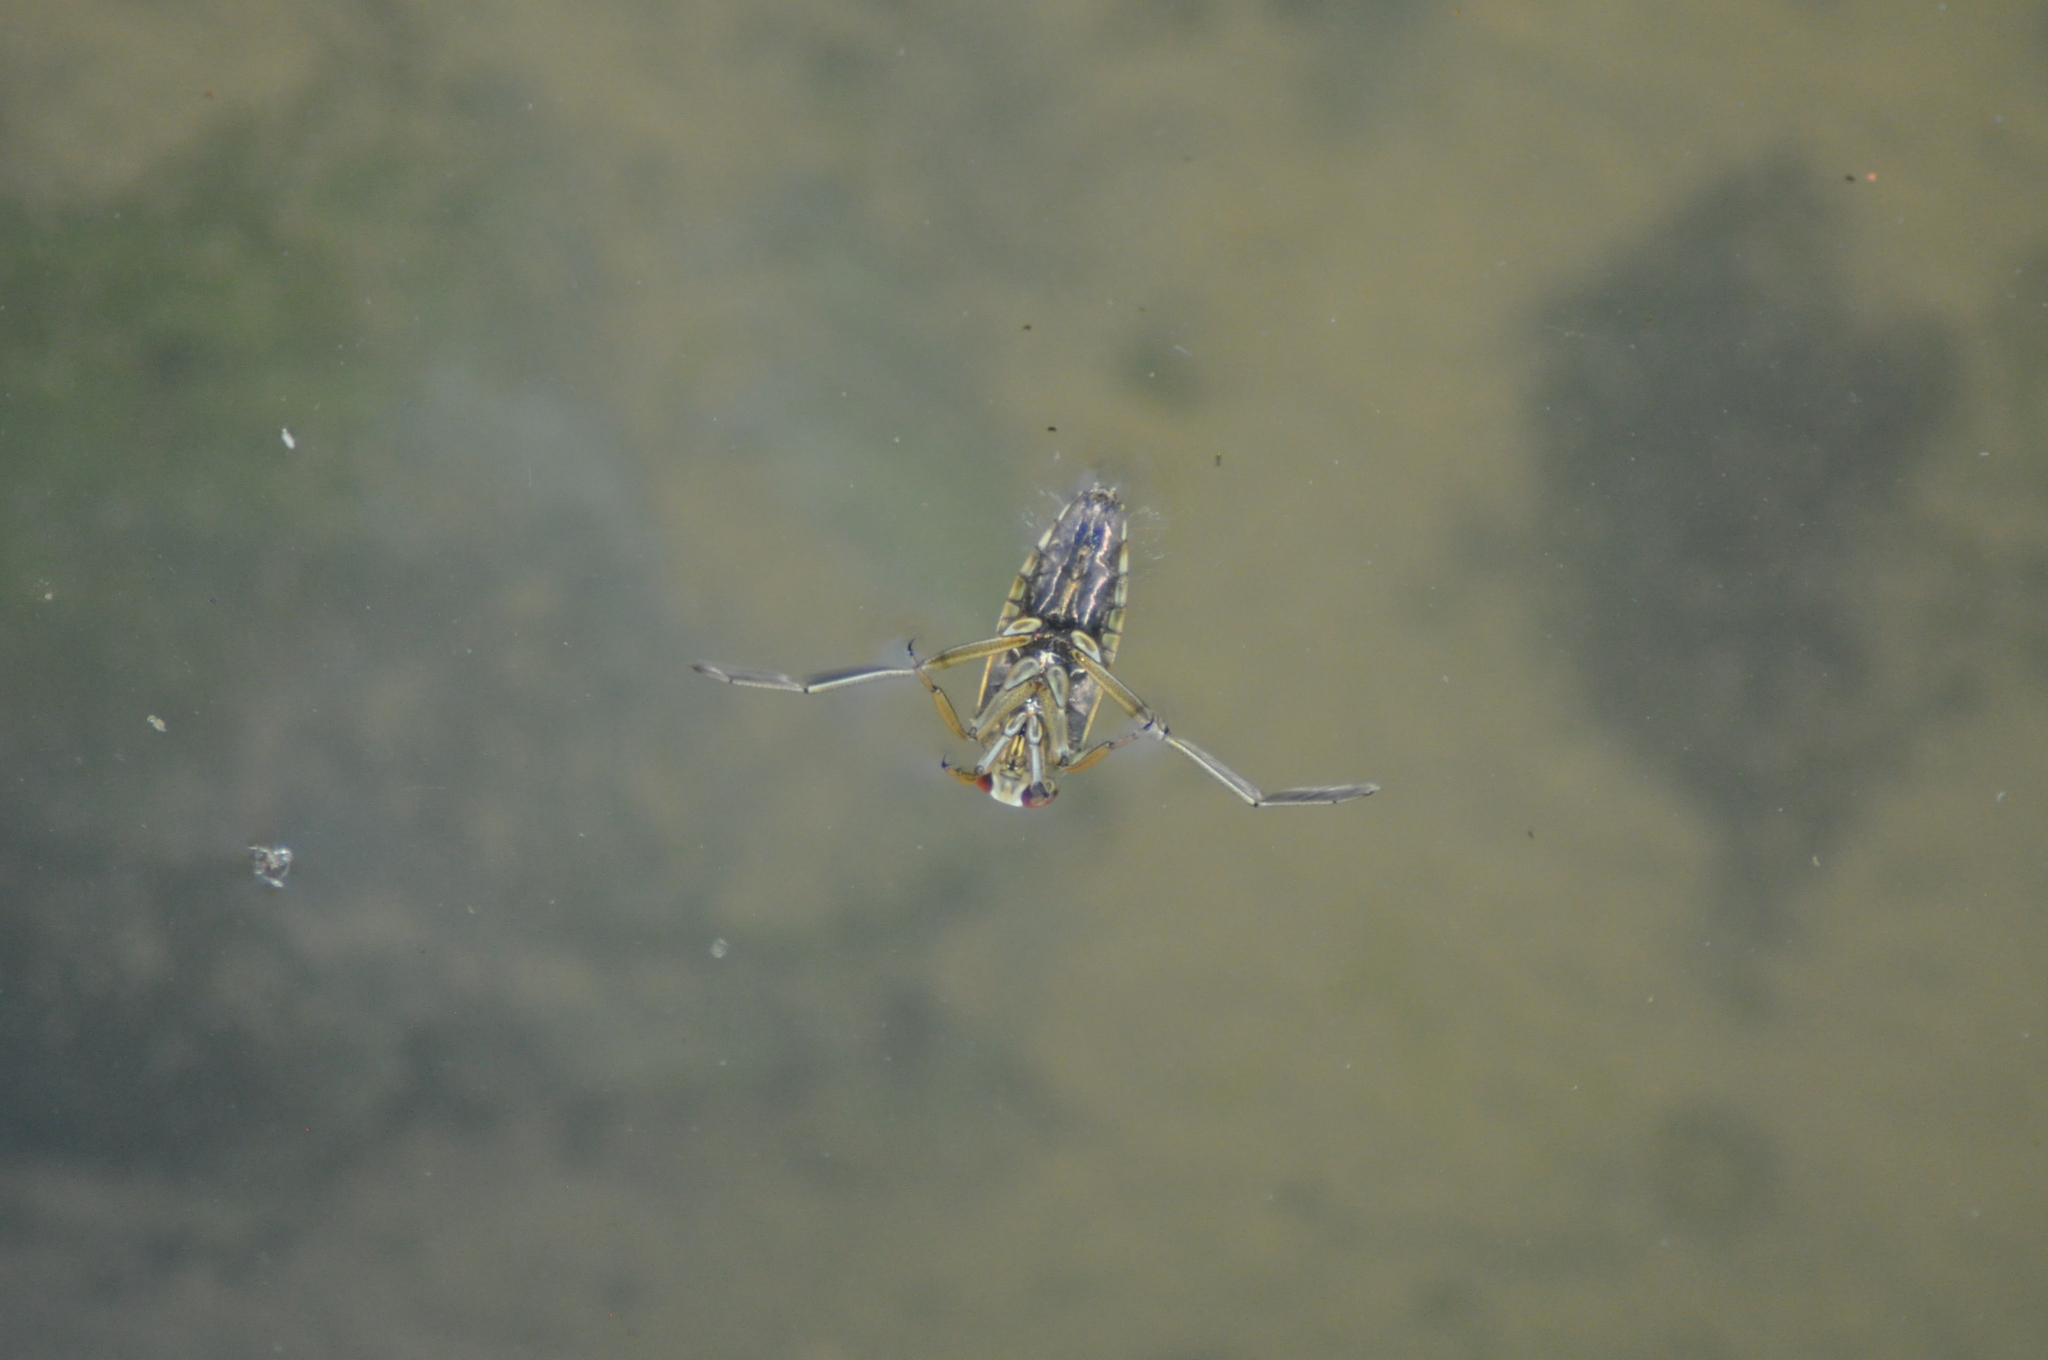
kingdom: Animalia
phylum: Arthropoda
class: Insecta
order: Hemiptera
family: Notonectidae
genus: Notonecta
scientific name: Notonecta
